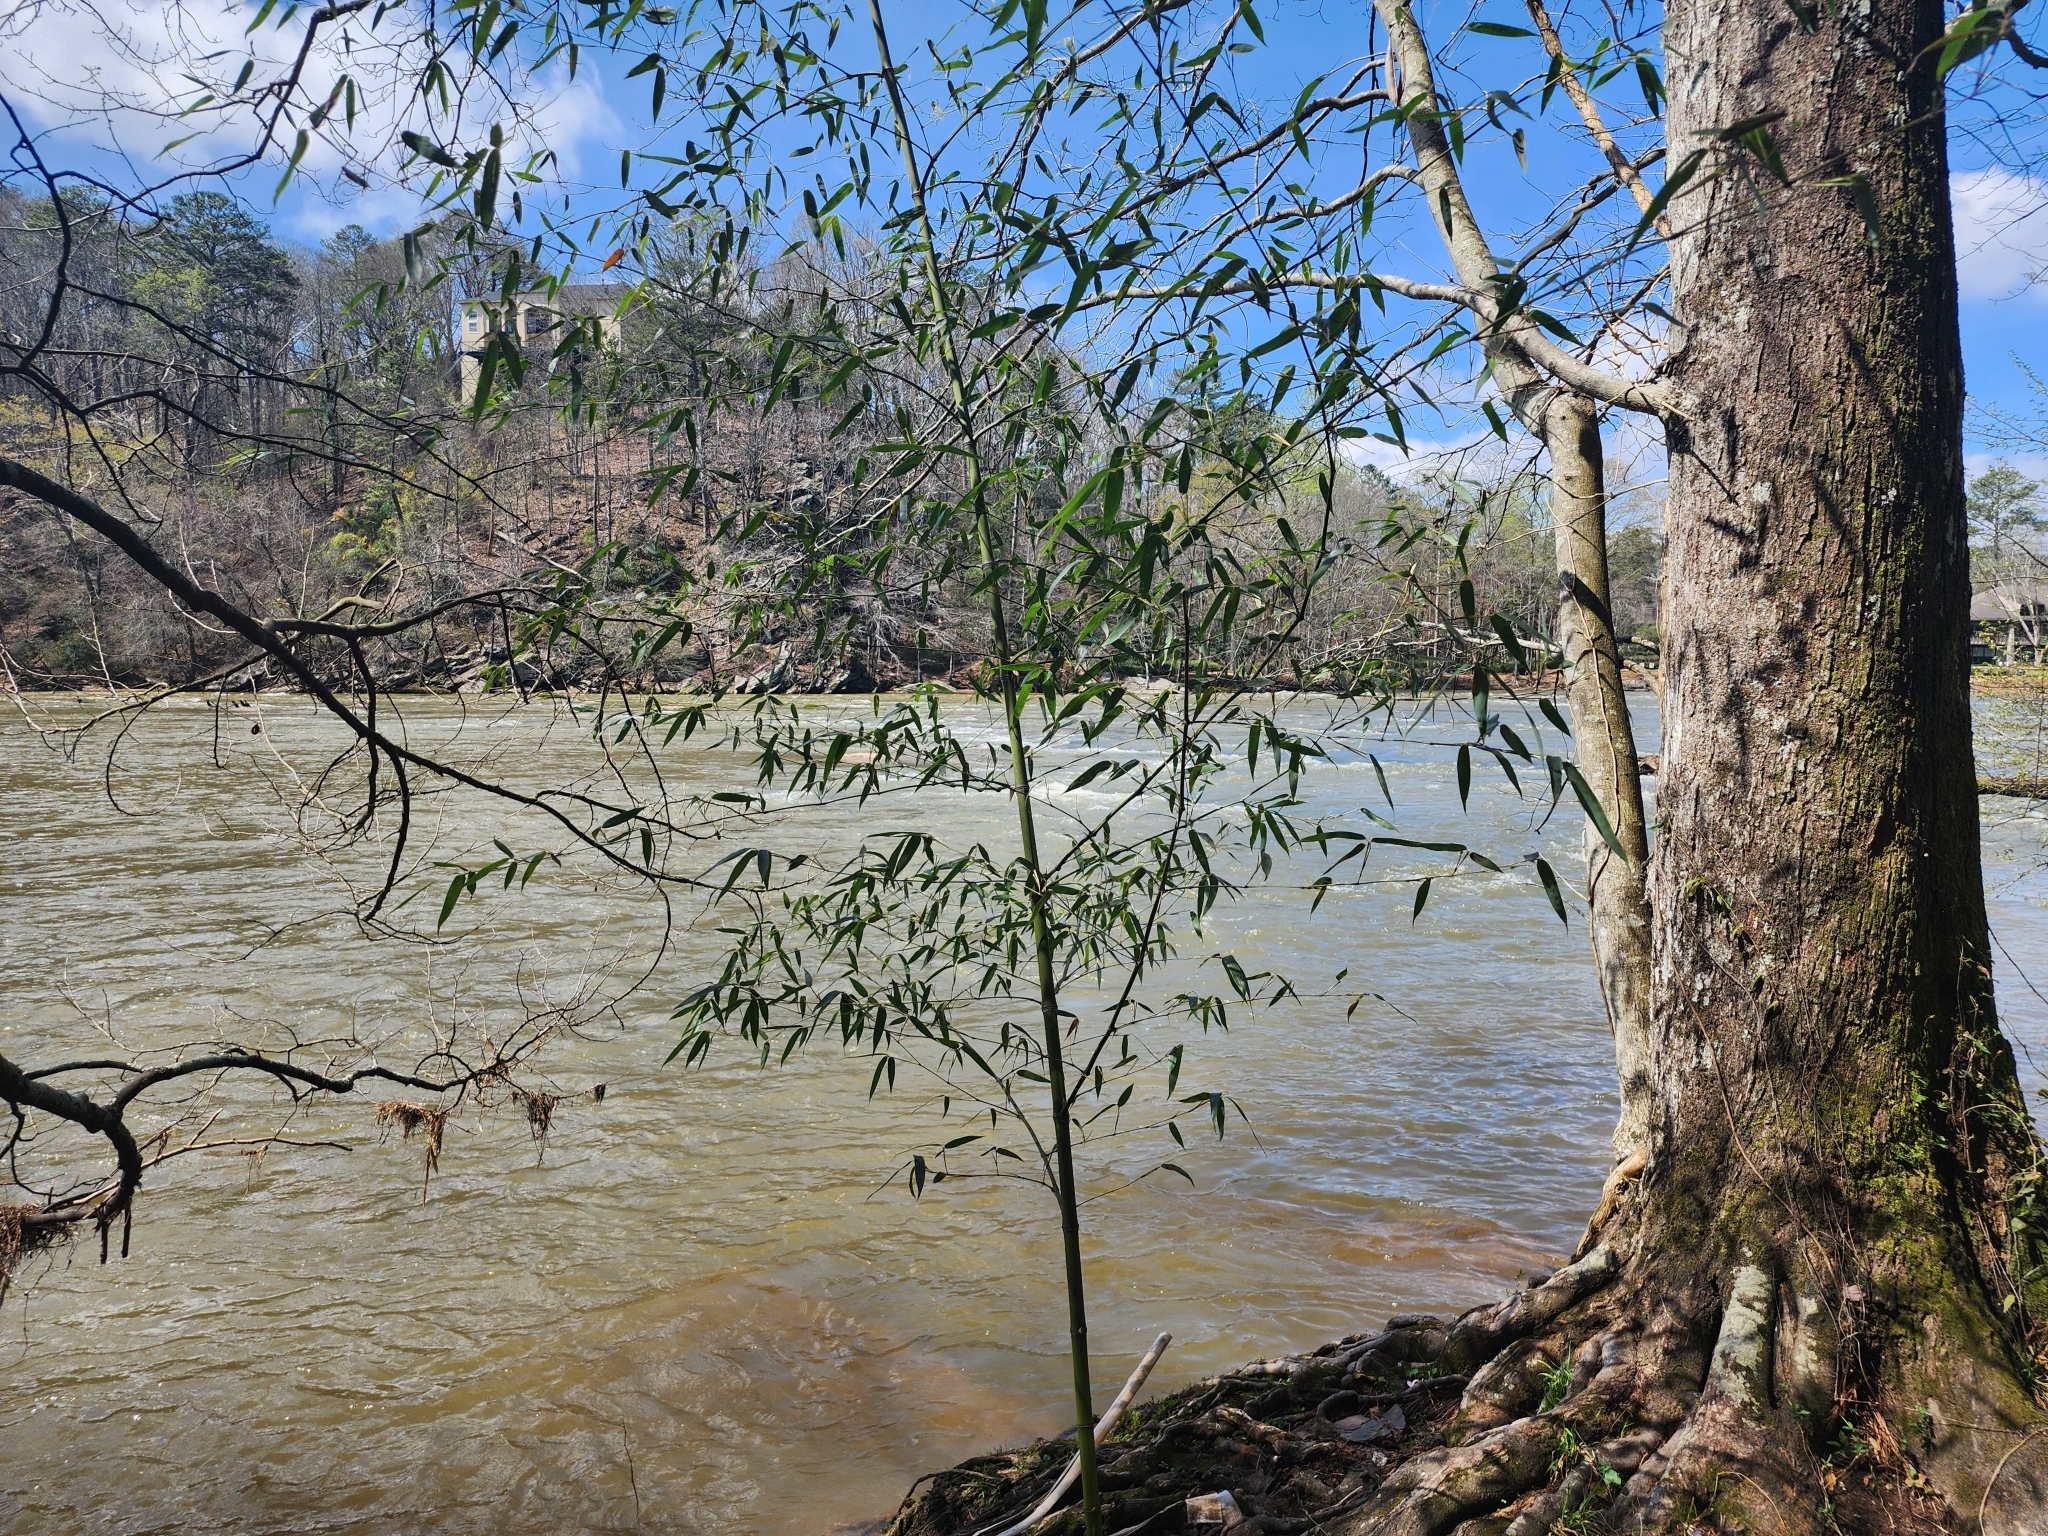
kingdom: Plantae
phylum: Tracheophyta
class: Liliopsida
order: Poales
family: Poaceae
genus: Phyllostachys
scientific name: Phyllostachys reticulata
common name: Bamboo
